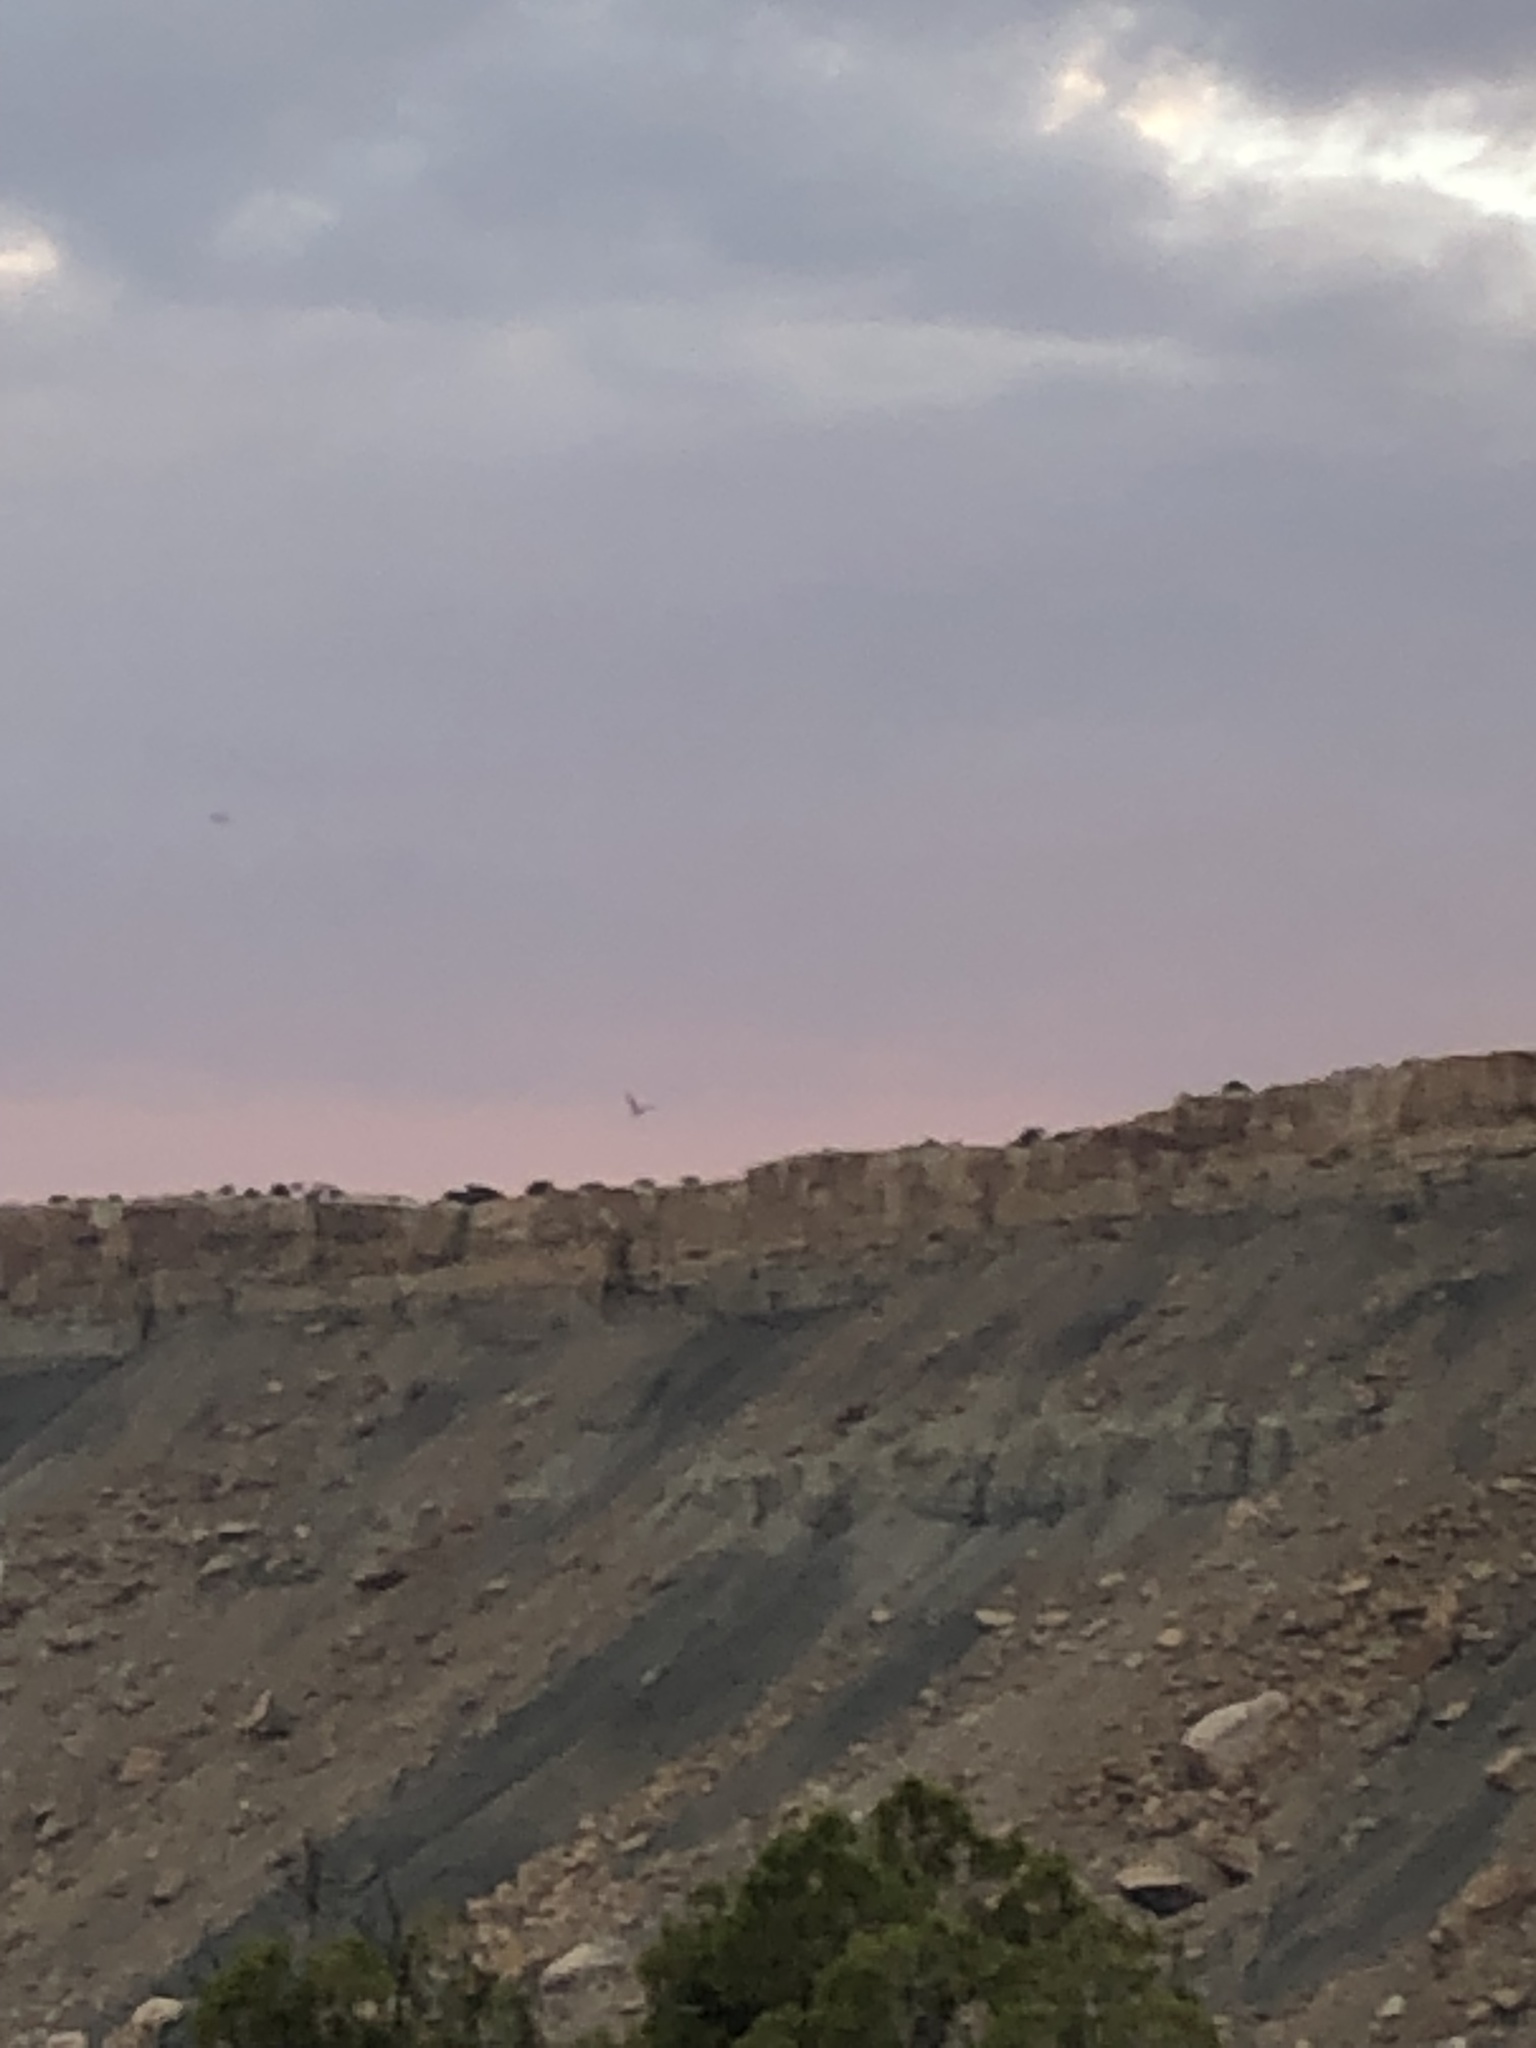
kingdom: Animalia
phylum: Chordata
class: Aves
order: Caprimulgiformes
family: Caprimulgidae
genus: Chordeiles
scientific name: Chordeiles minor
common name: Common nighthawk
